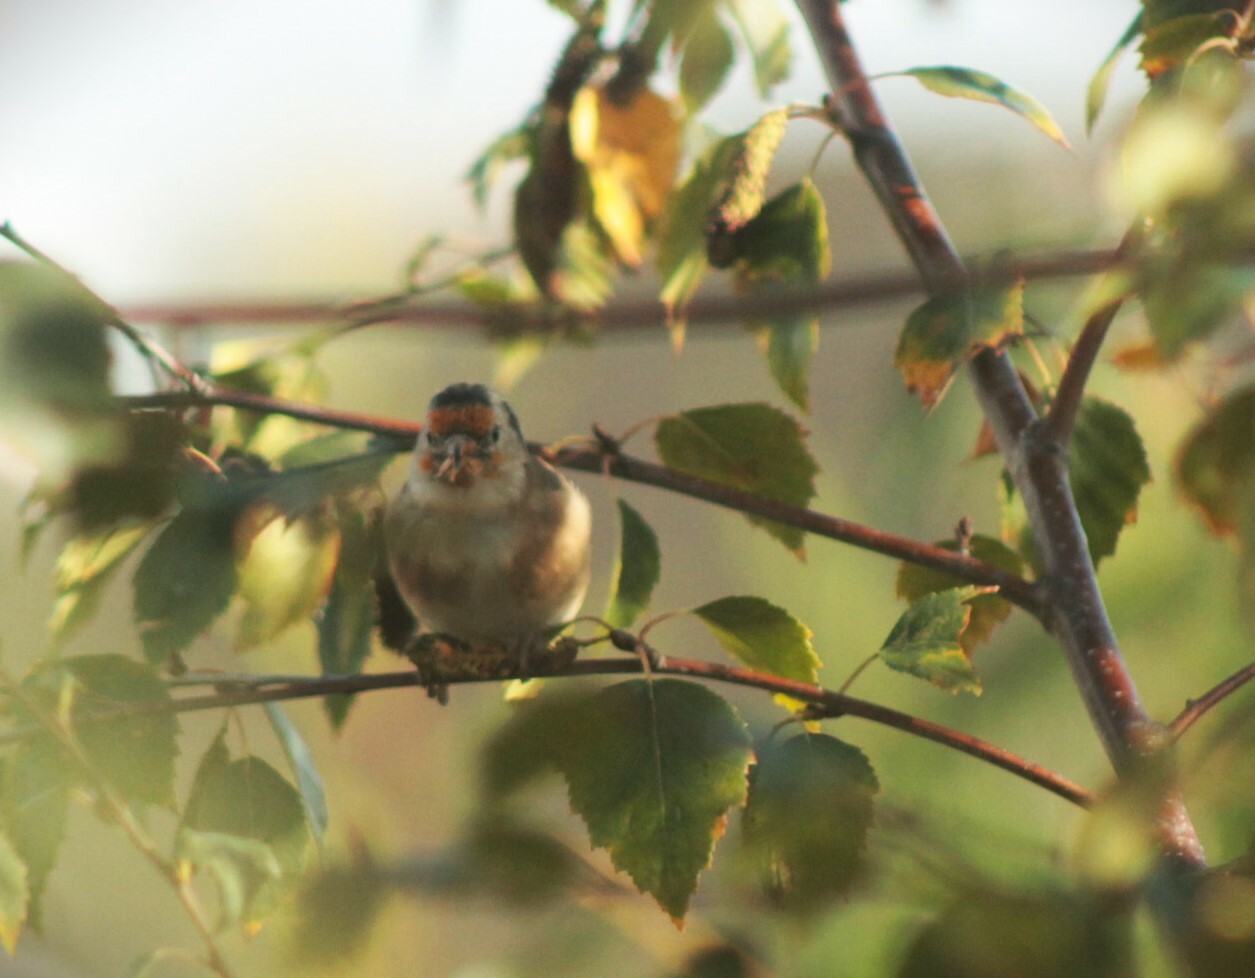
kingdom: Animalia
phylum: Chordata
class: Aves
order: Passeriformes
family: Fringillidae
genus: Carduelis
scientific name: Carduelis carduelis
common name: European goldfinch
